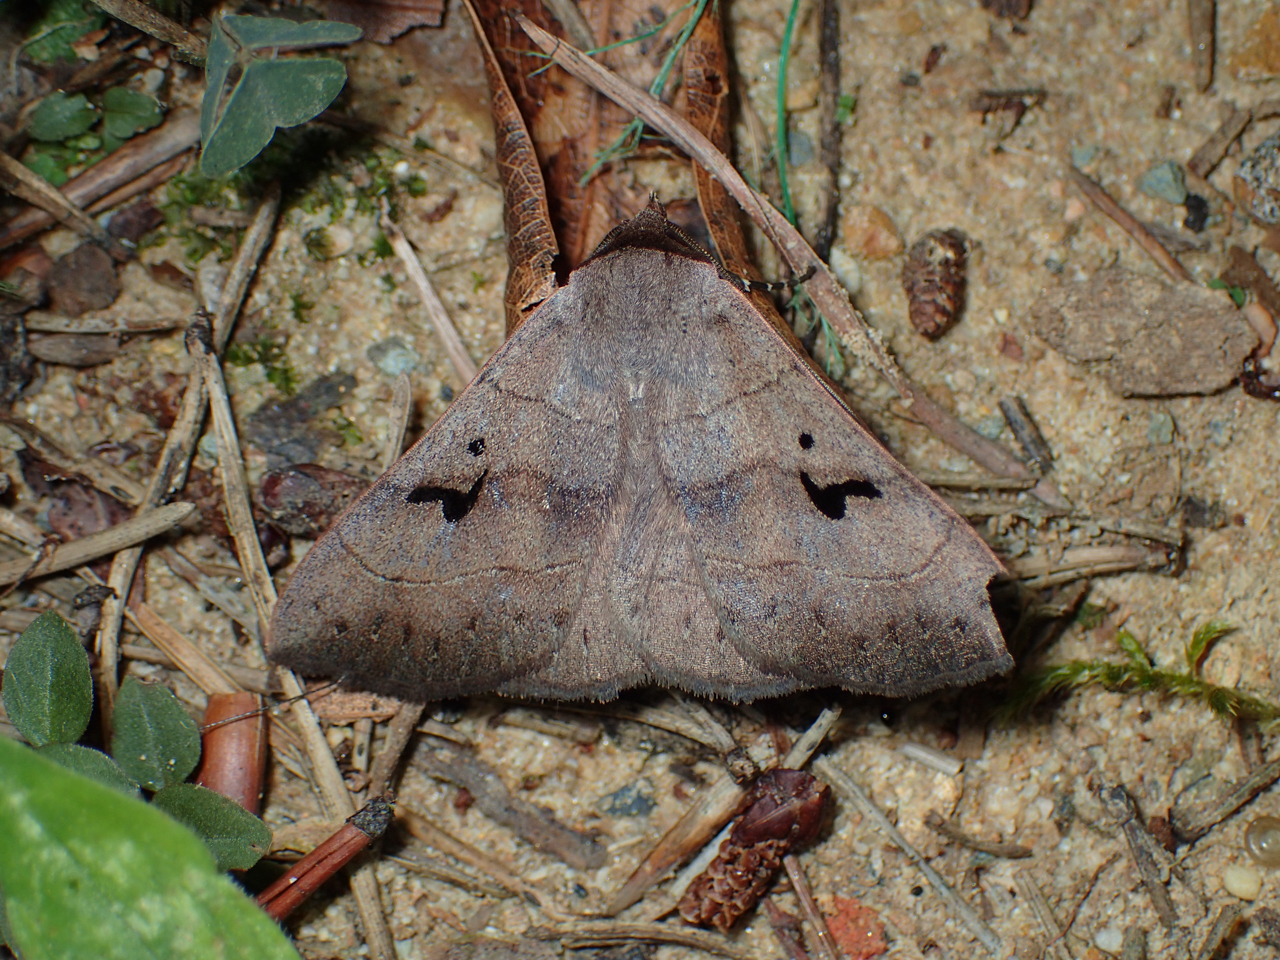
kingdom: Animalia
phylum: Arthropoda
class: Insecta
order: Lepidoptera
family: Erebidae
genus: Panopoda
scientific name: Panopoda carneicosta
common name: Brown panopoda moth
